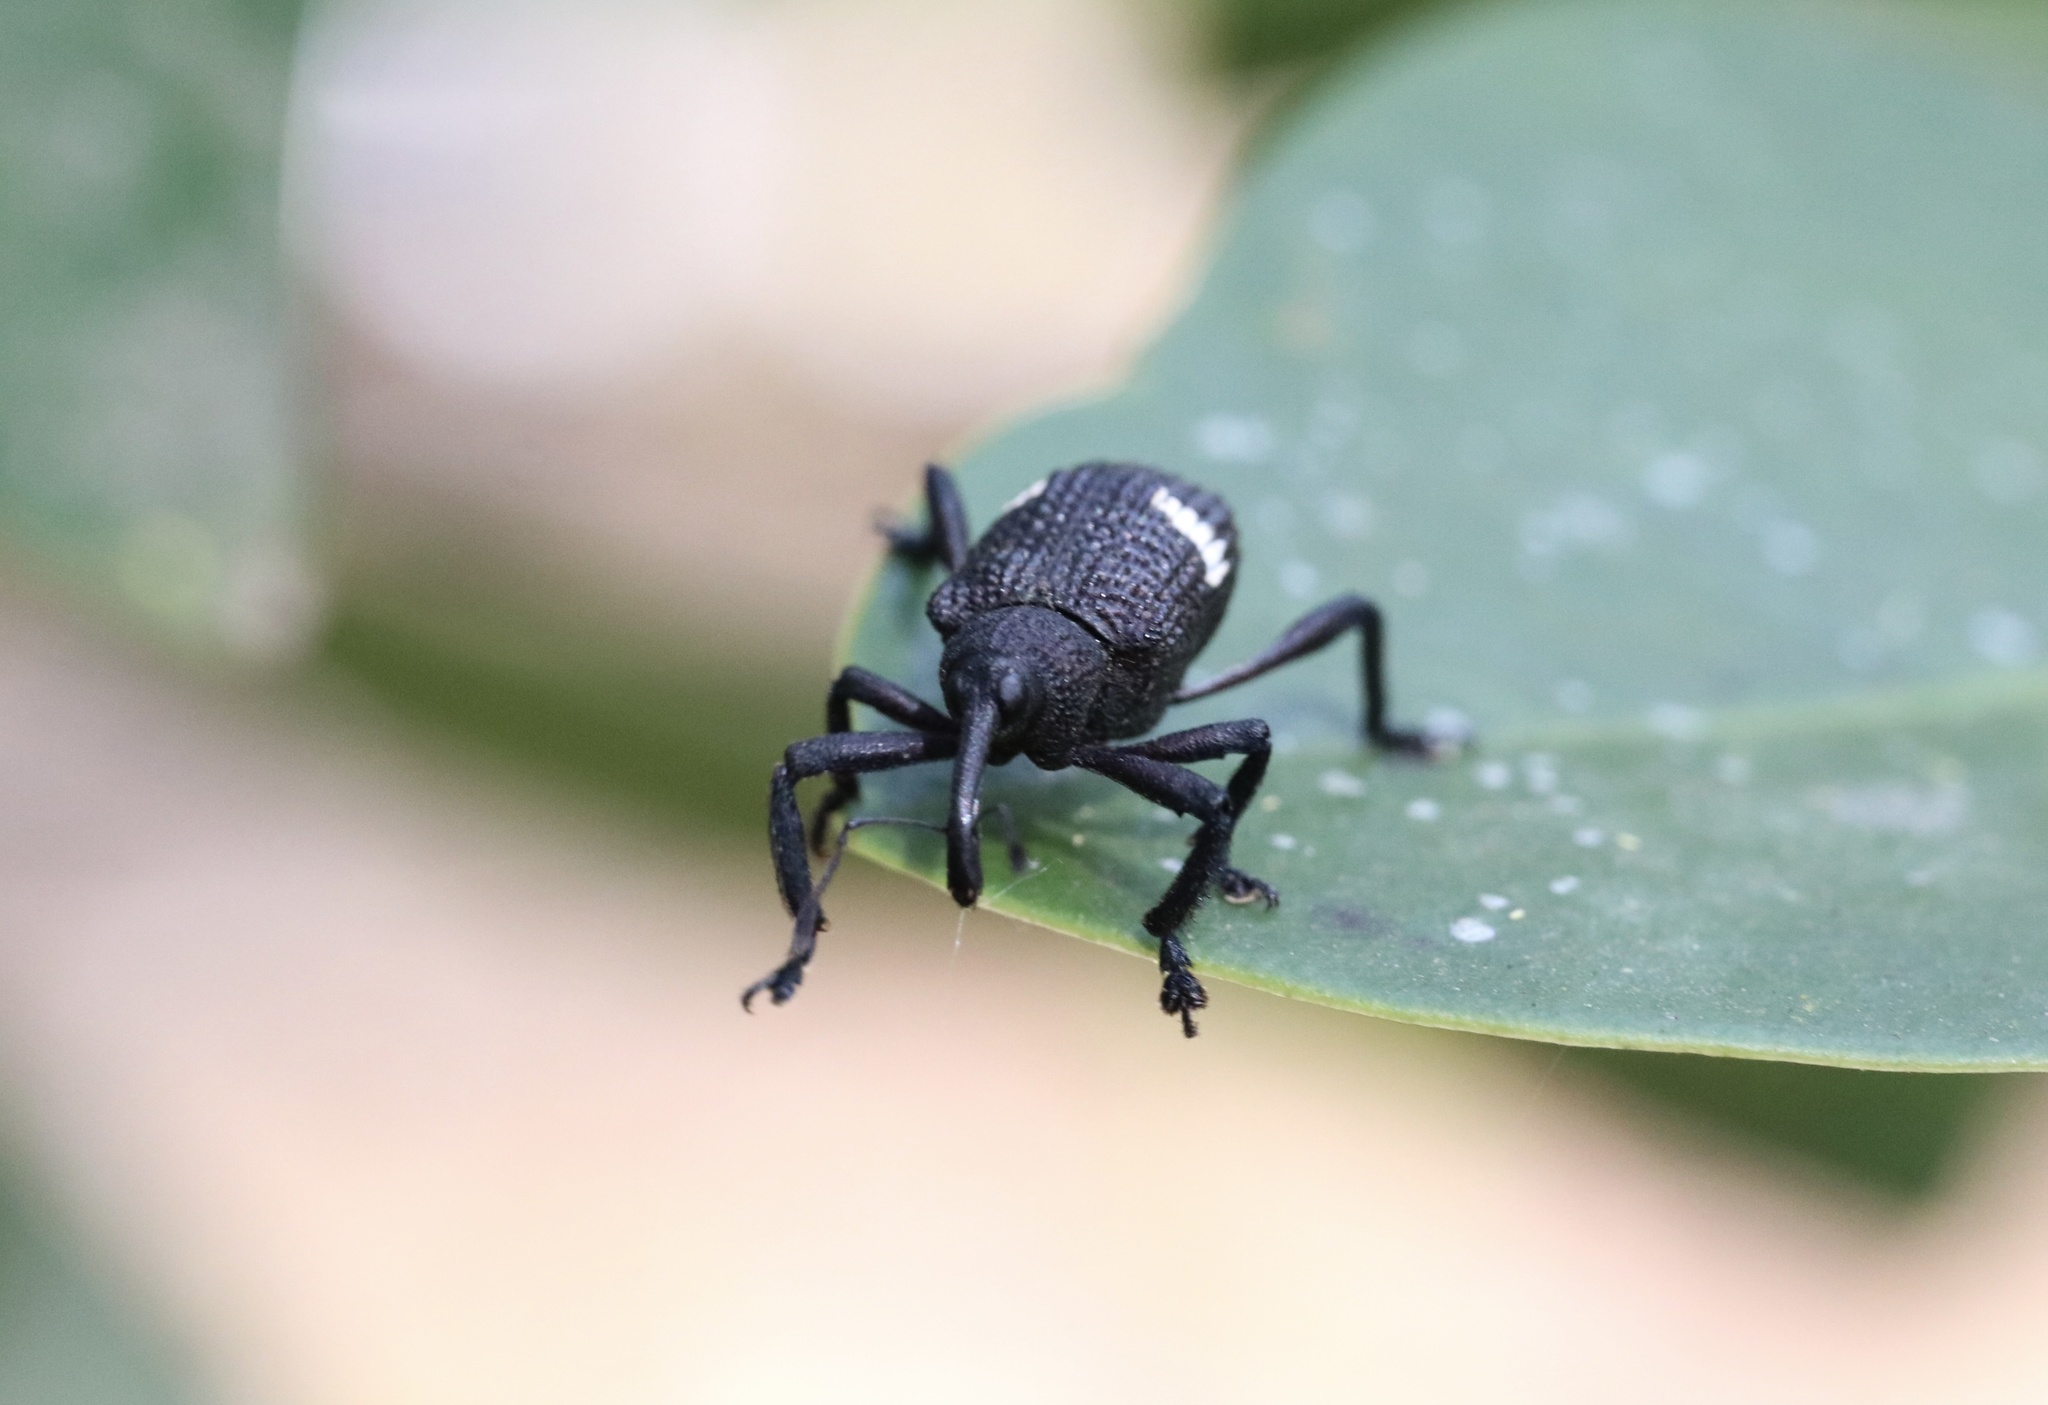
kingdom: Animalia
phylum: Arthropoda
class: Insecta
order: Coleoptera
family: Curculionidae
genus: Tartarisus
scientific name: Tartarisus
